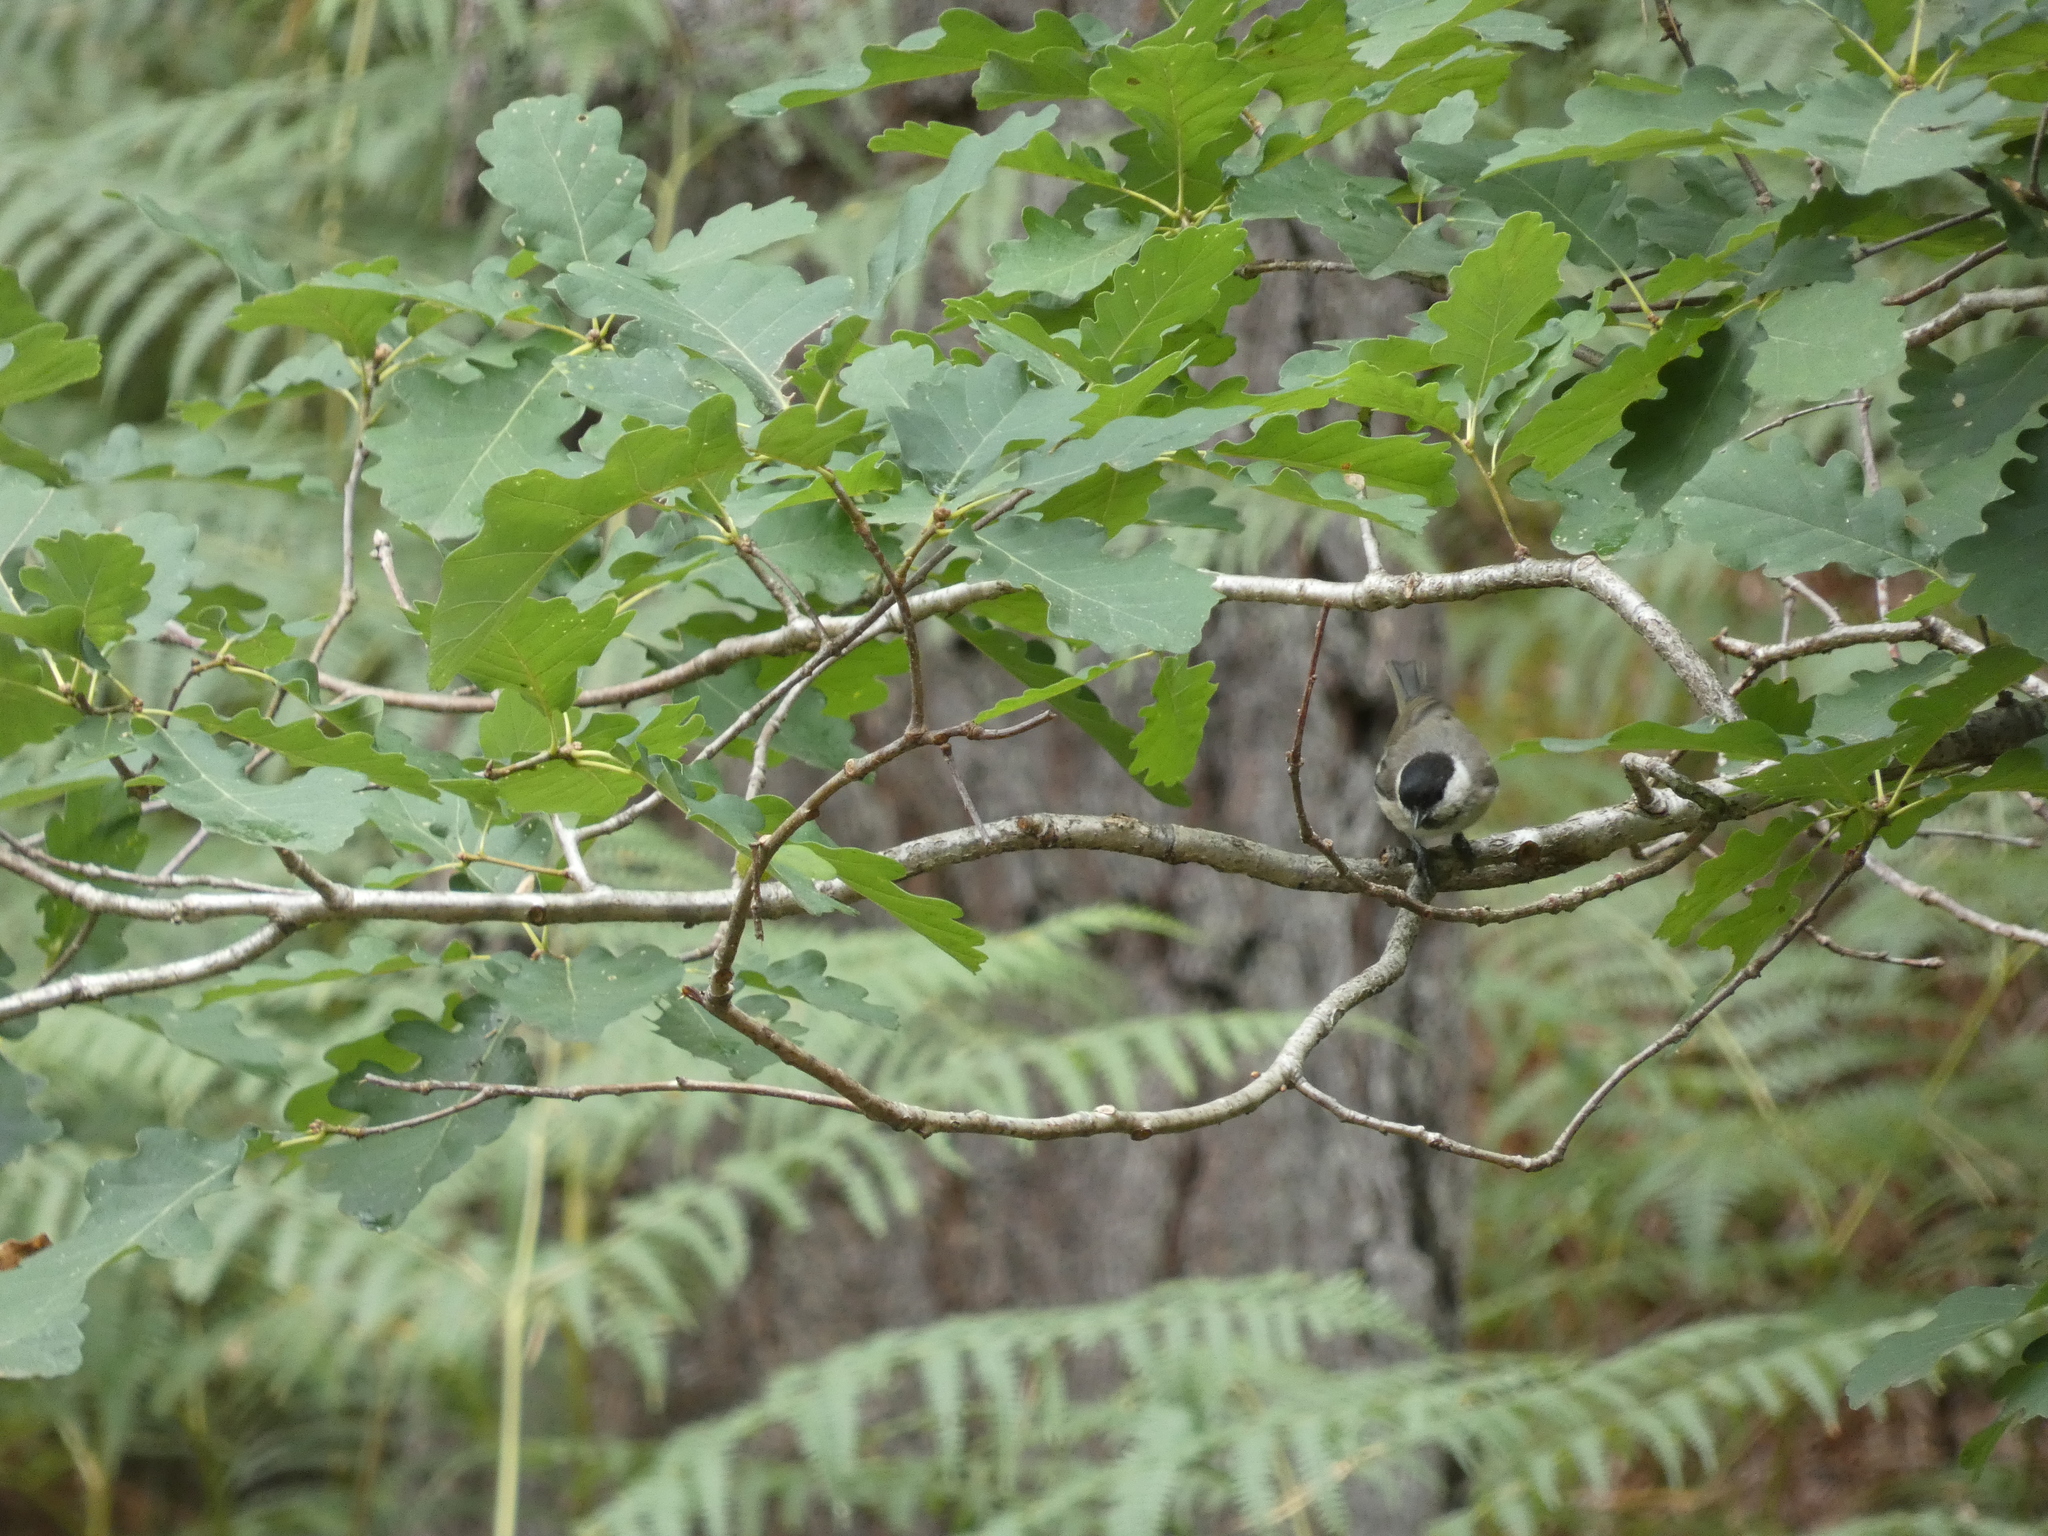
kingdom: Animalia
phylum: Chordata
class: Aves
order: Passeriformes
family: Paridae
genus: Poecile
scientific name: Poecile palustris
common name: Marsh tit
